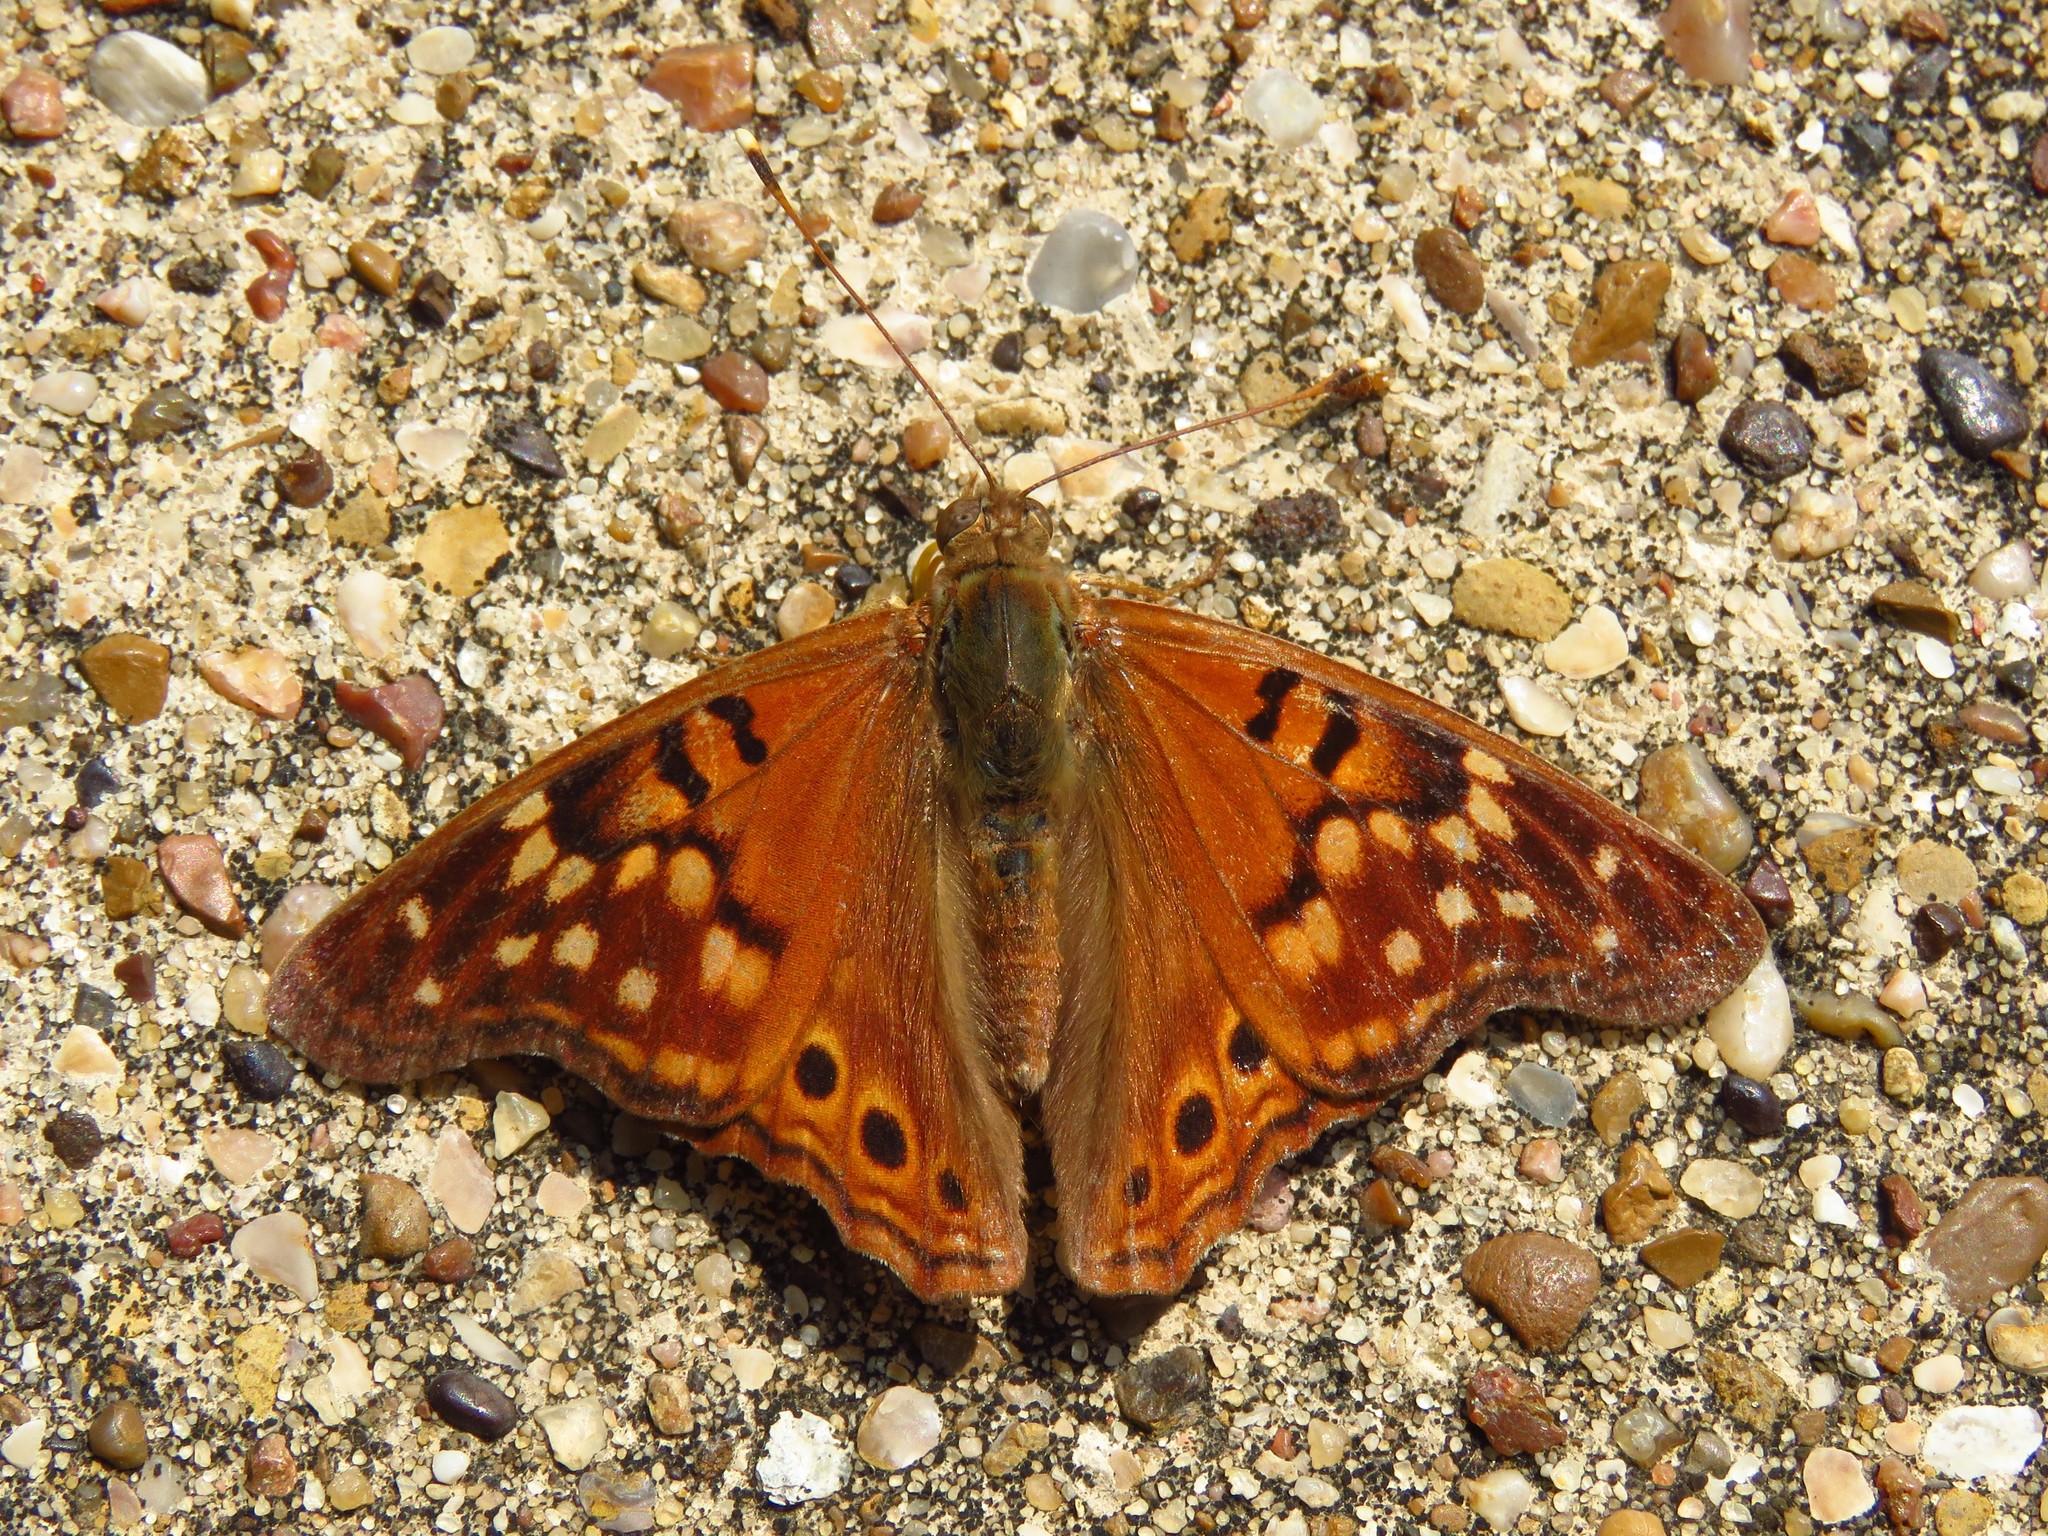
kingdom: Animalia
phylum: Arthropoda
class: Insecta
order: Lepidoptera
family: Nymphalidae
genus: Asterocampa
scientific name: Asterocampa clyton
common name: Tawny emperor
